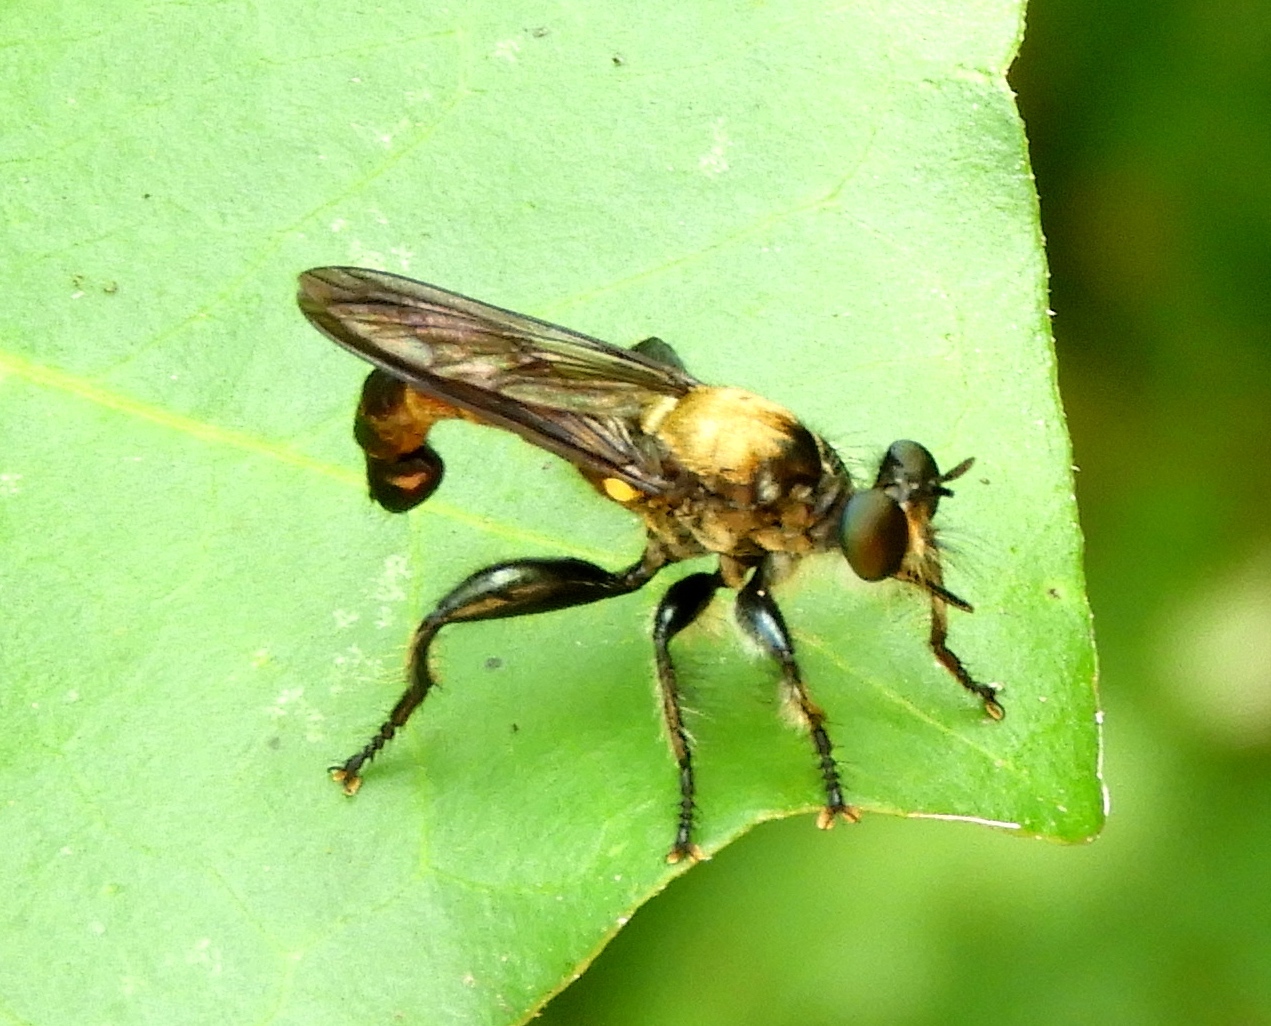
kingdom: Animalia
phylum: Arthropoda
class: Insecta
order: Diptera
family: Asilidae
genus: Lampria
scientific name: Lampria aurifex
